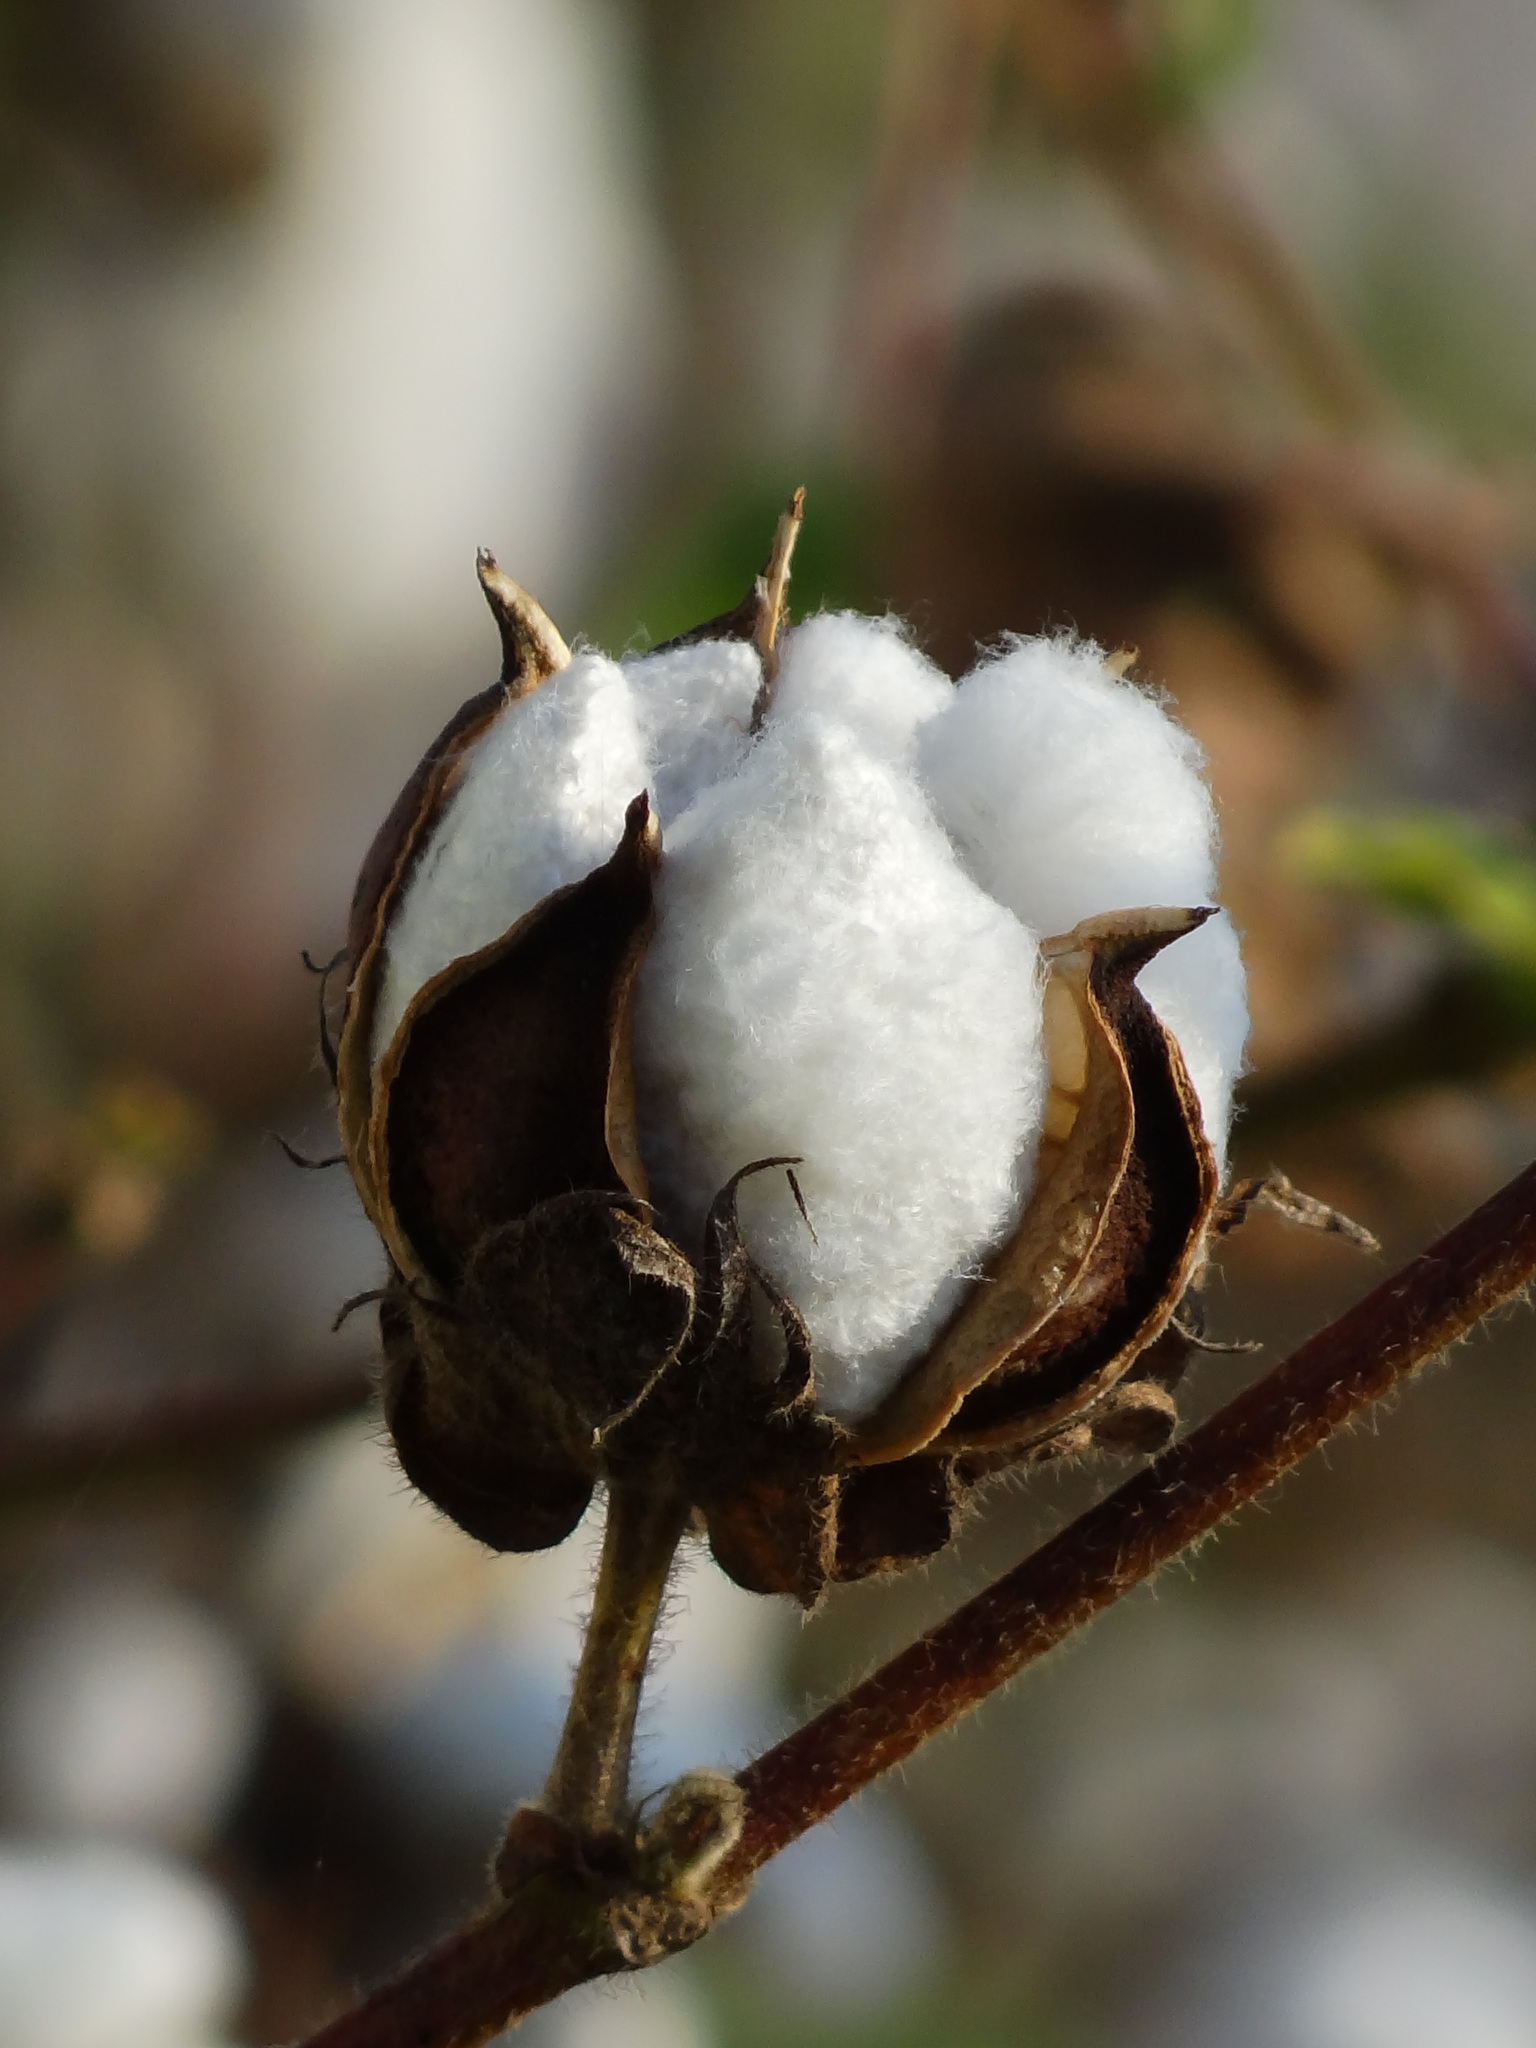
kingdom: Plantae
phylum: Tracheophyta
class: Magnoliopsida
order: Malvales
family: Malvaceae
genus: Gossypium
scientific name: Gossypium herbaceum
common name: Levant cotton
